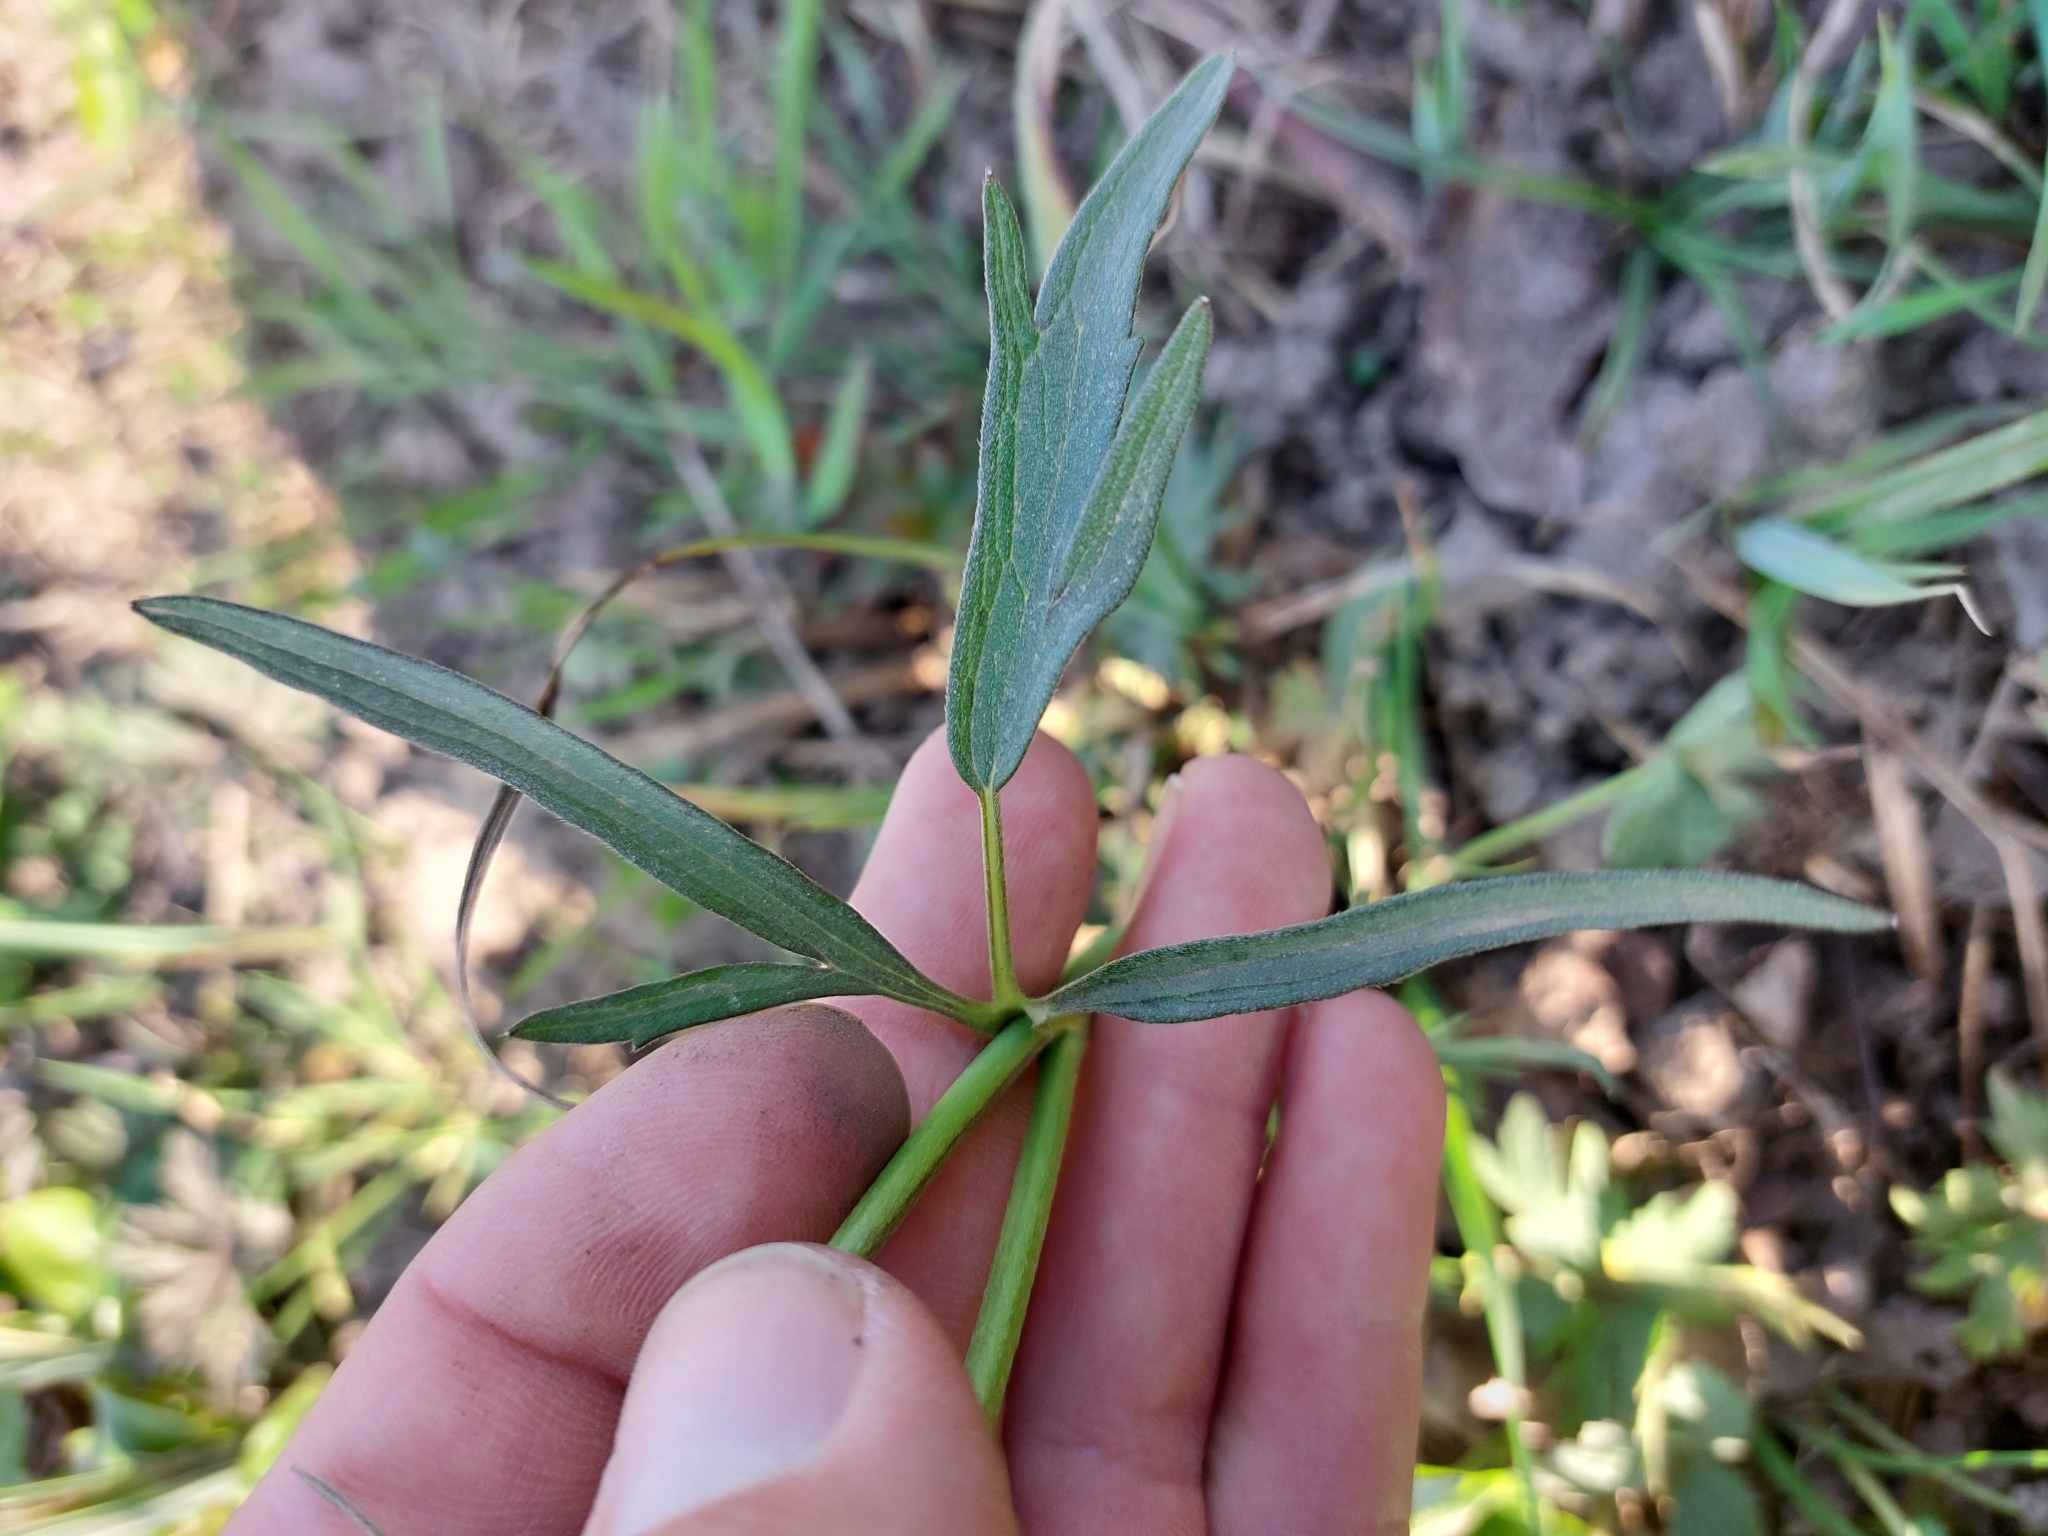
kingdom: Plantae
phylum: Tracheophyta
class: Magnoliopsida
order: Ranunculales
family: Ranunculaceae
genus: Ranunculus
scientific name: Ranunculus acris
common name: Meadow buttercup
